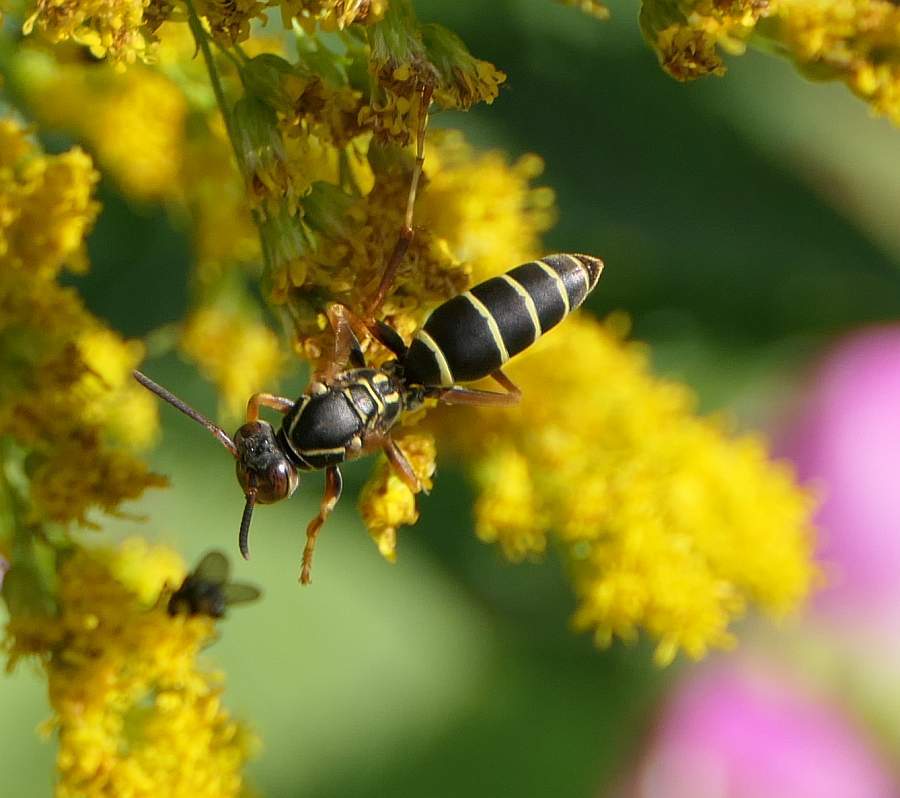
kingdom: Animalia
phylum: Arthropoda
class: Insecta
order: Hymenoptera
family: Eumenidae
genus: Polistes
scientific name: Polistes fuscatus
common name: Dark paper wasp
